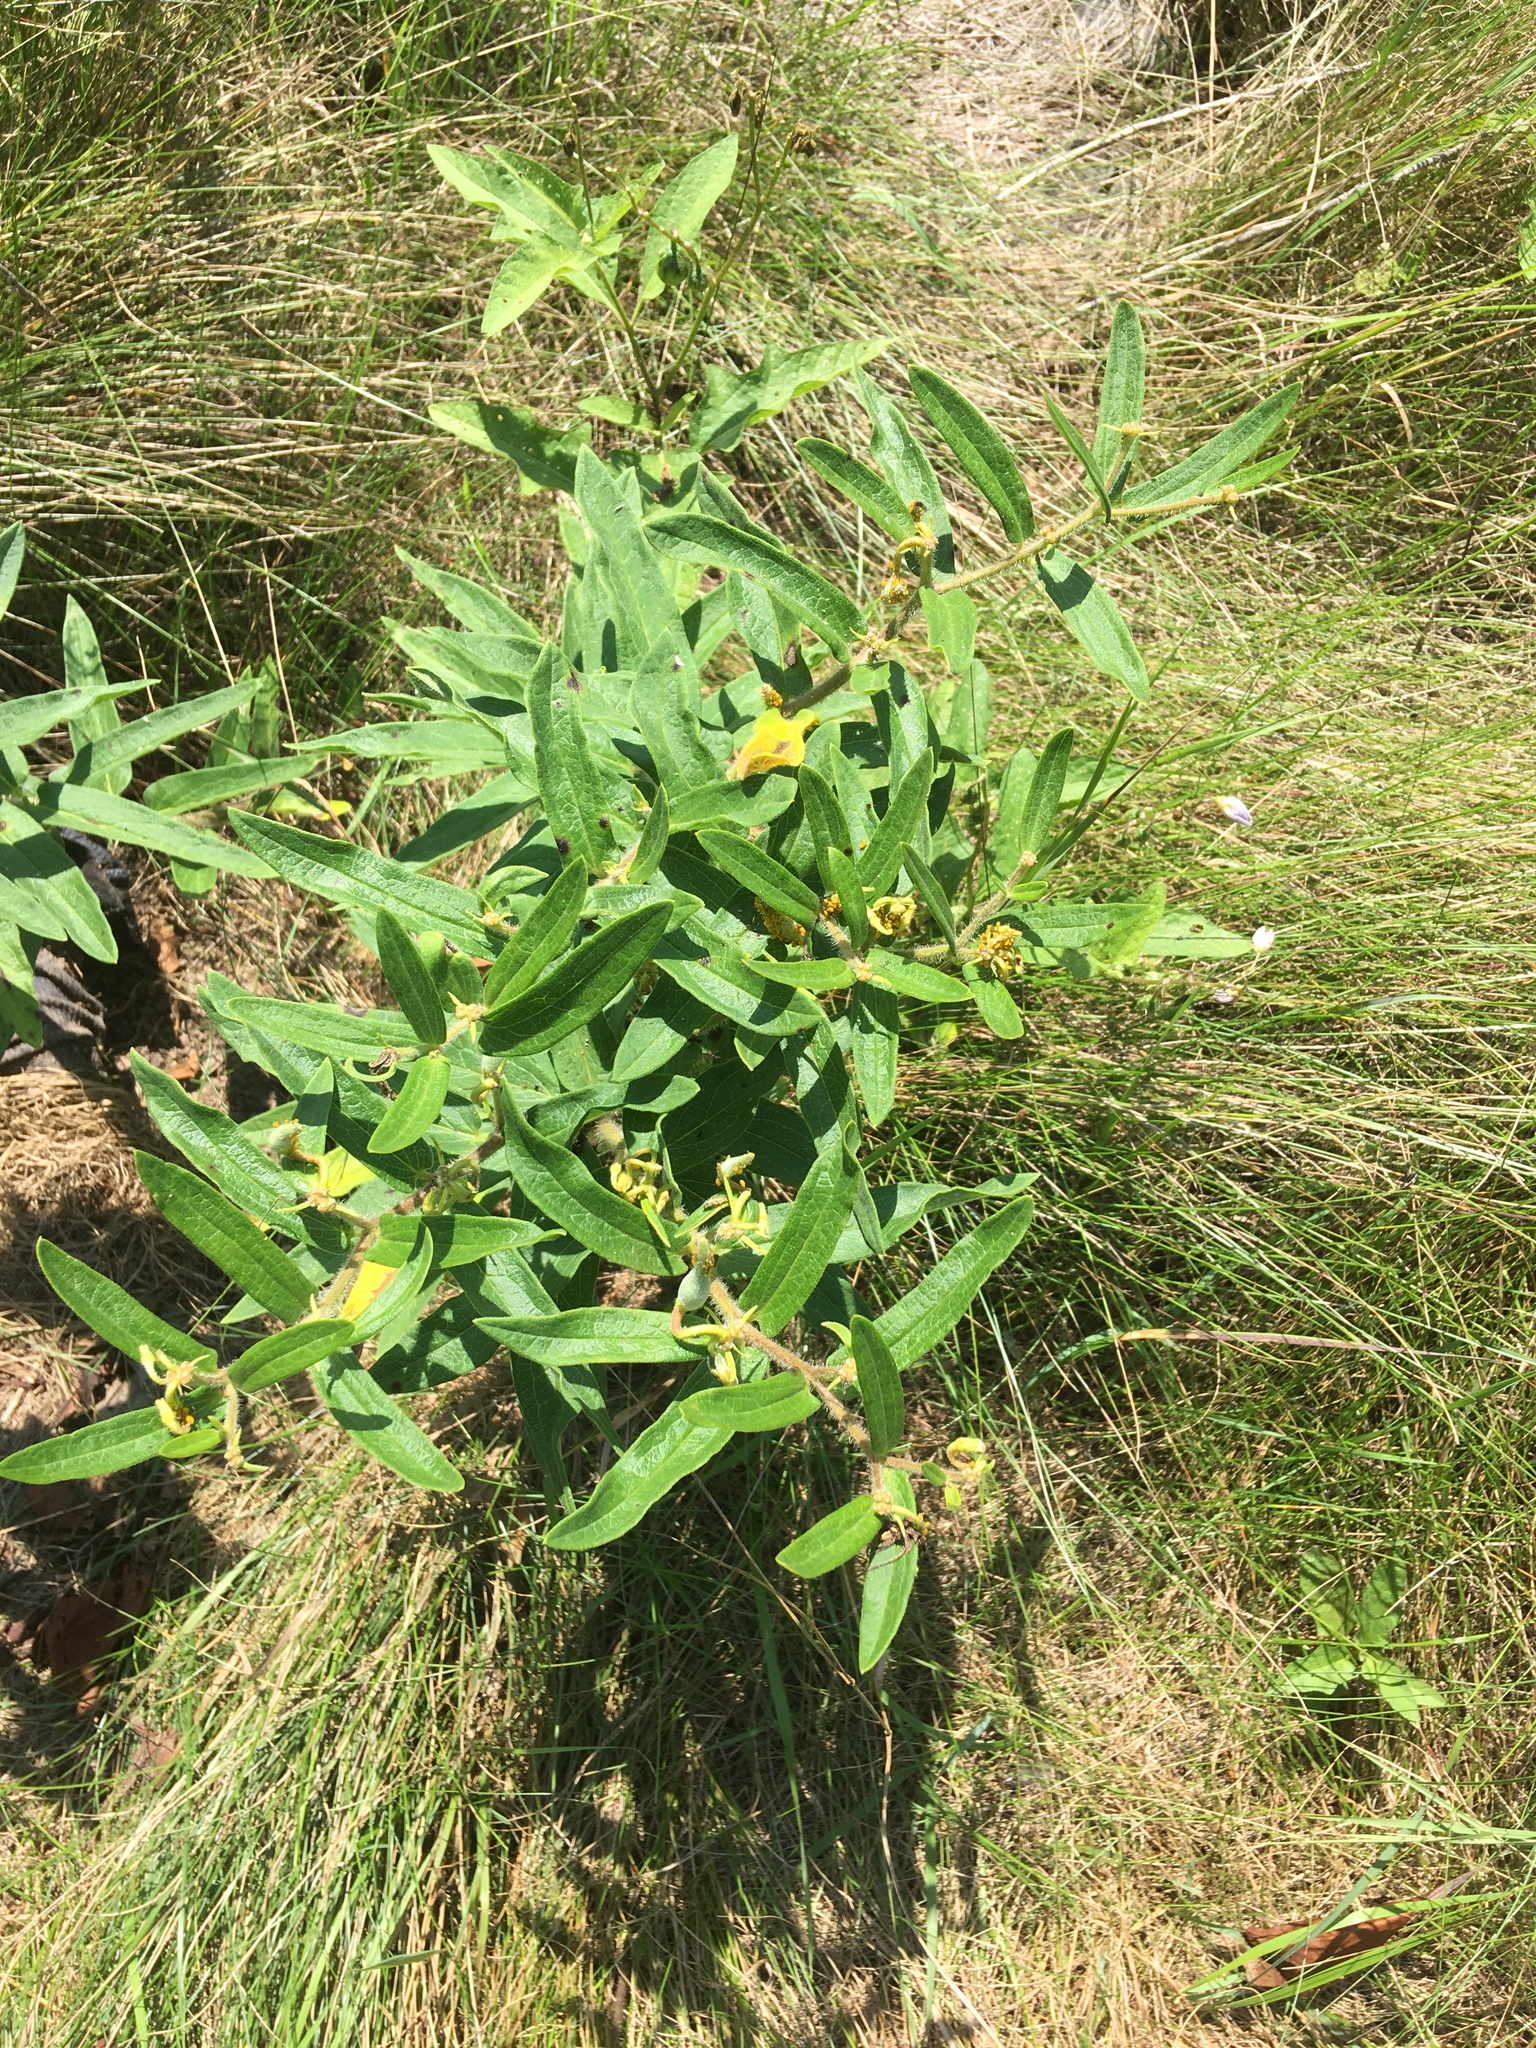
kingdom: Plantae
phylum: Tracheophyta
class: Magnoliopsida
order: Gentianales
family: Apocynaceae
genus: Asclepias
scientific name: Asclepias tuberosa
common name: Butterfly milkweed
